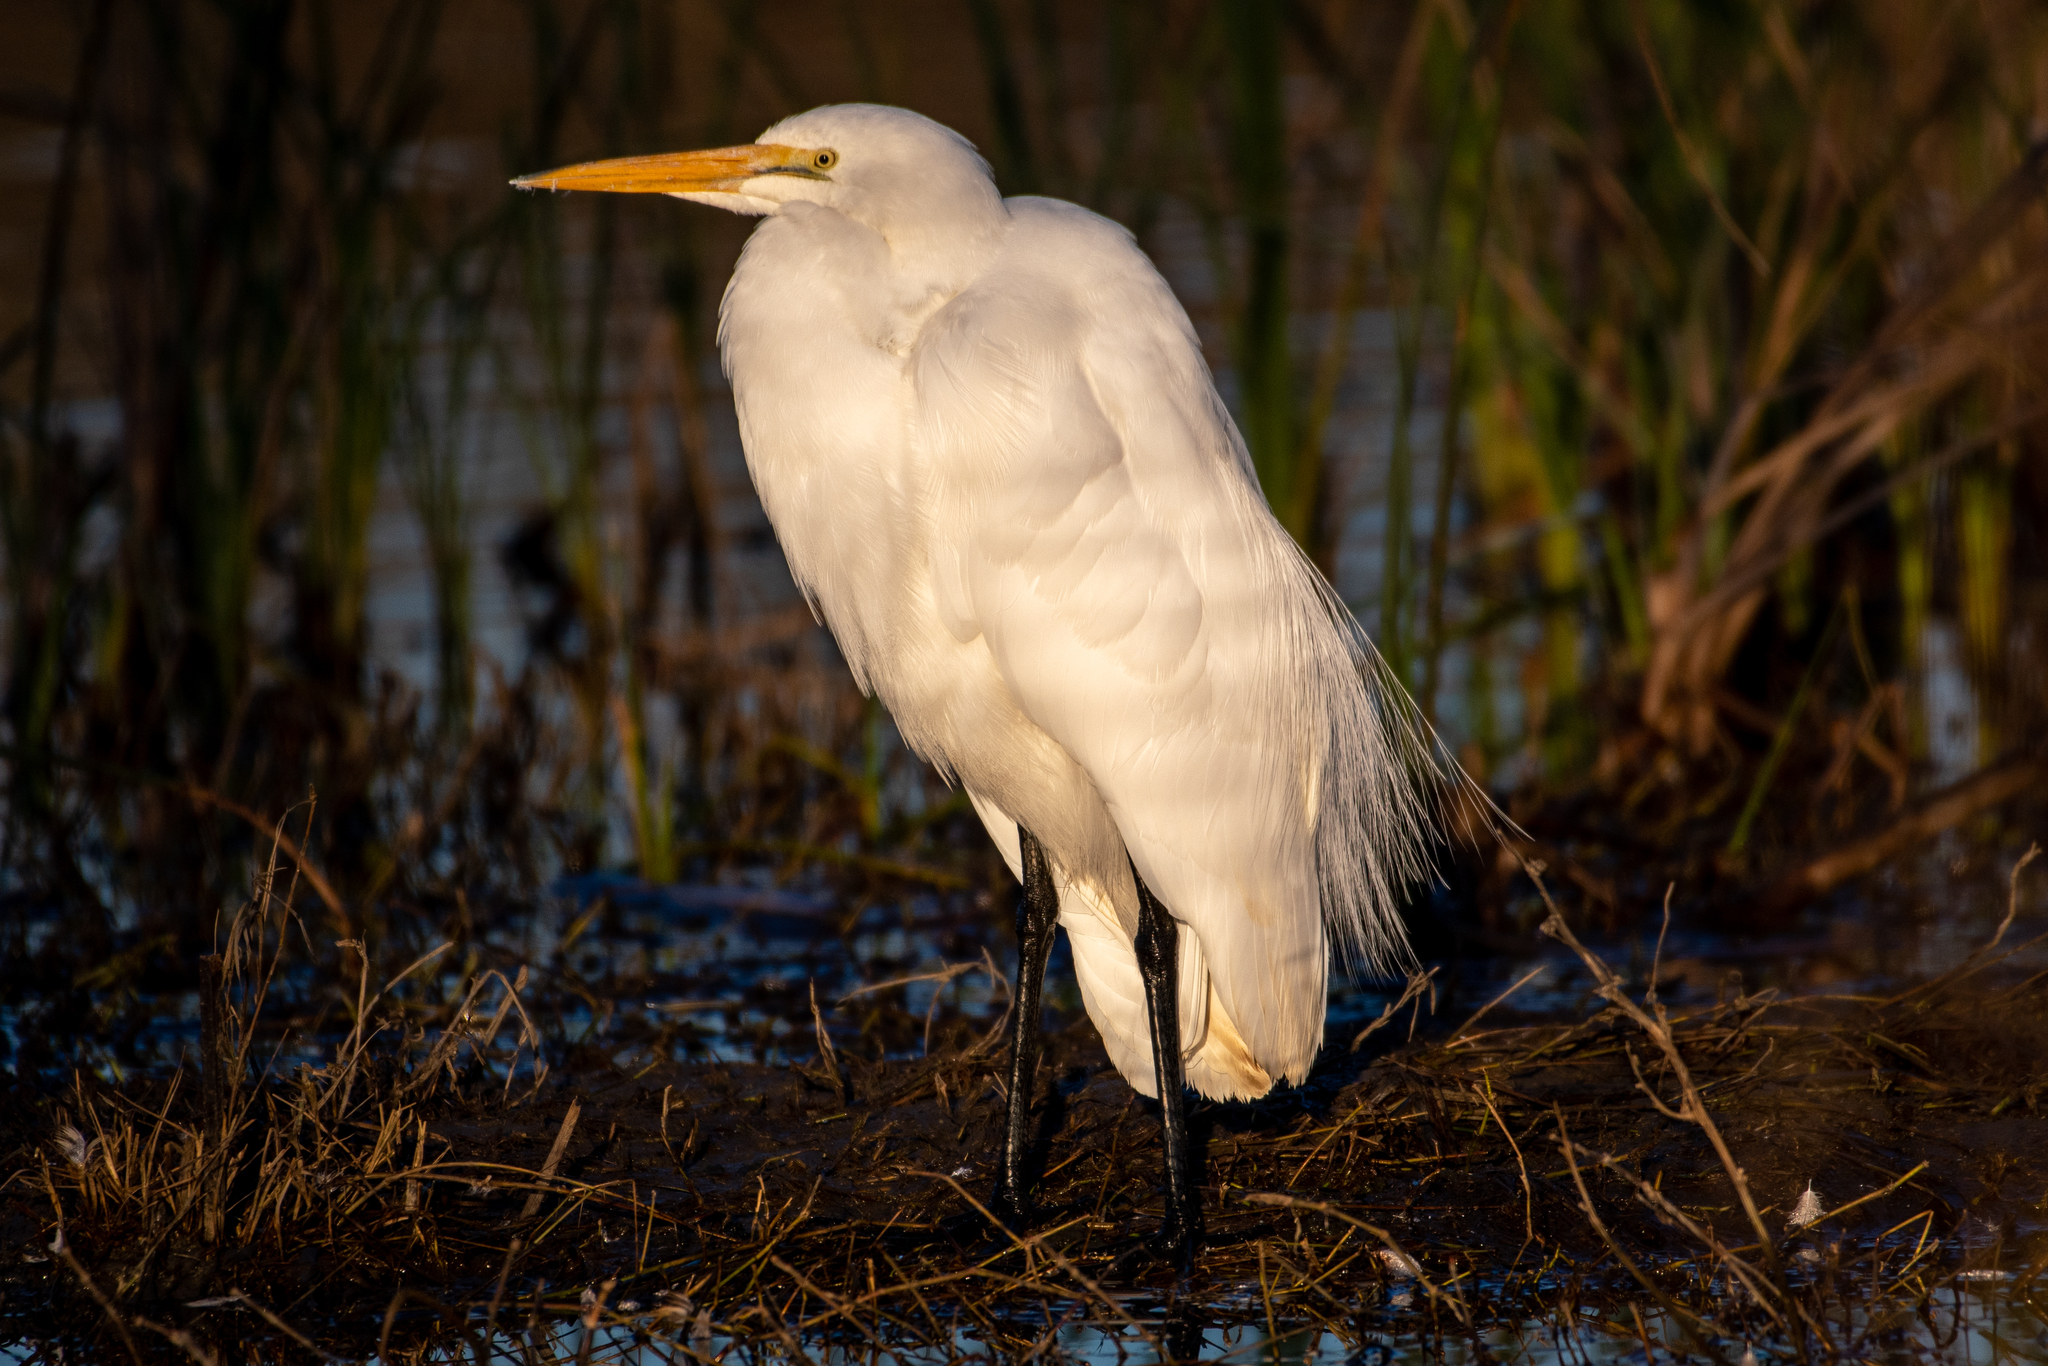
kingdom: Animalia
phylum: Chordata
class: Aves
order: Pelecaniformes
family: Ardeidae
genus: Ardea
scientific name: Ardea alba
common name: Great egret
